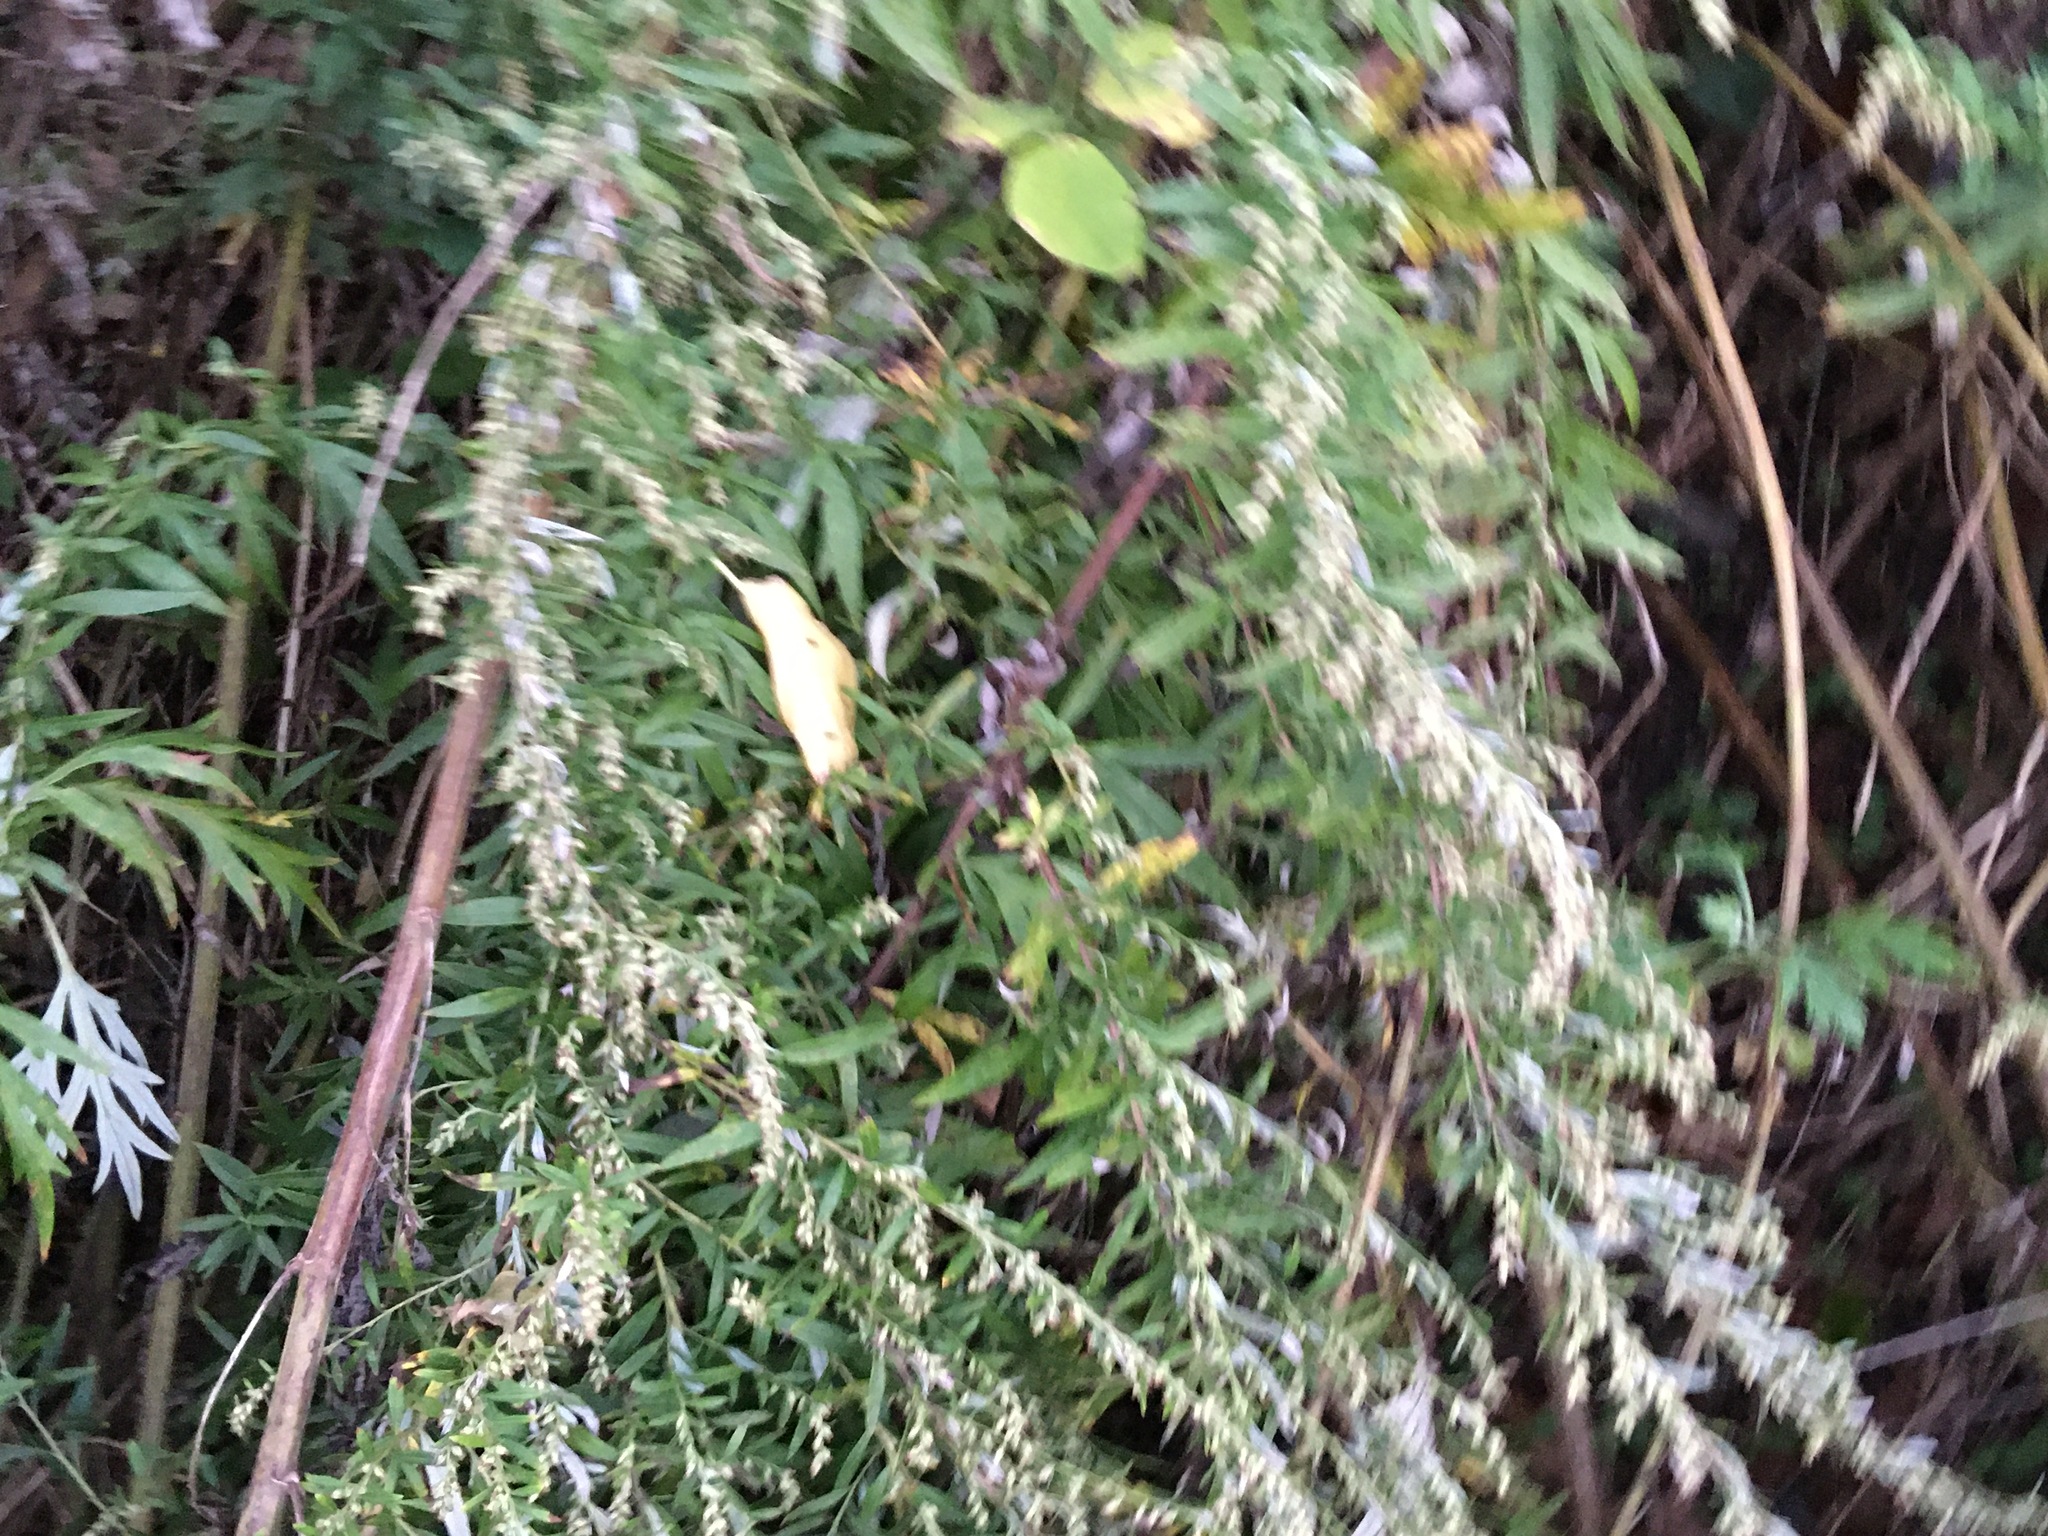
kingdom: Plantae
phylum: Tracheophyta
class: Magnoliopsida
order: Asterales
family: Asteraceae
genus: Artemisia
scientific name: Artemisia vulgaris
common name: Mugwort
